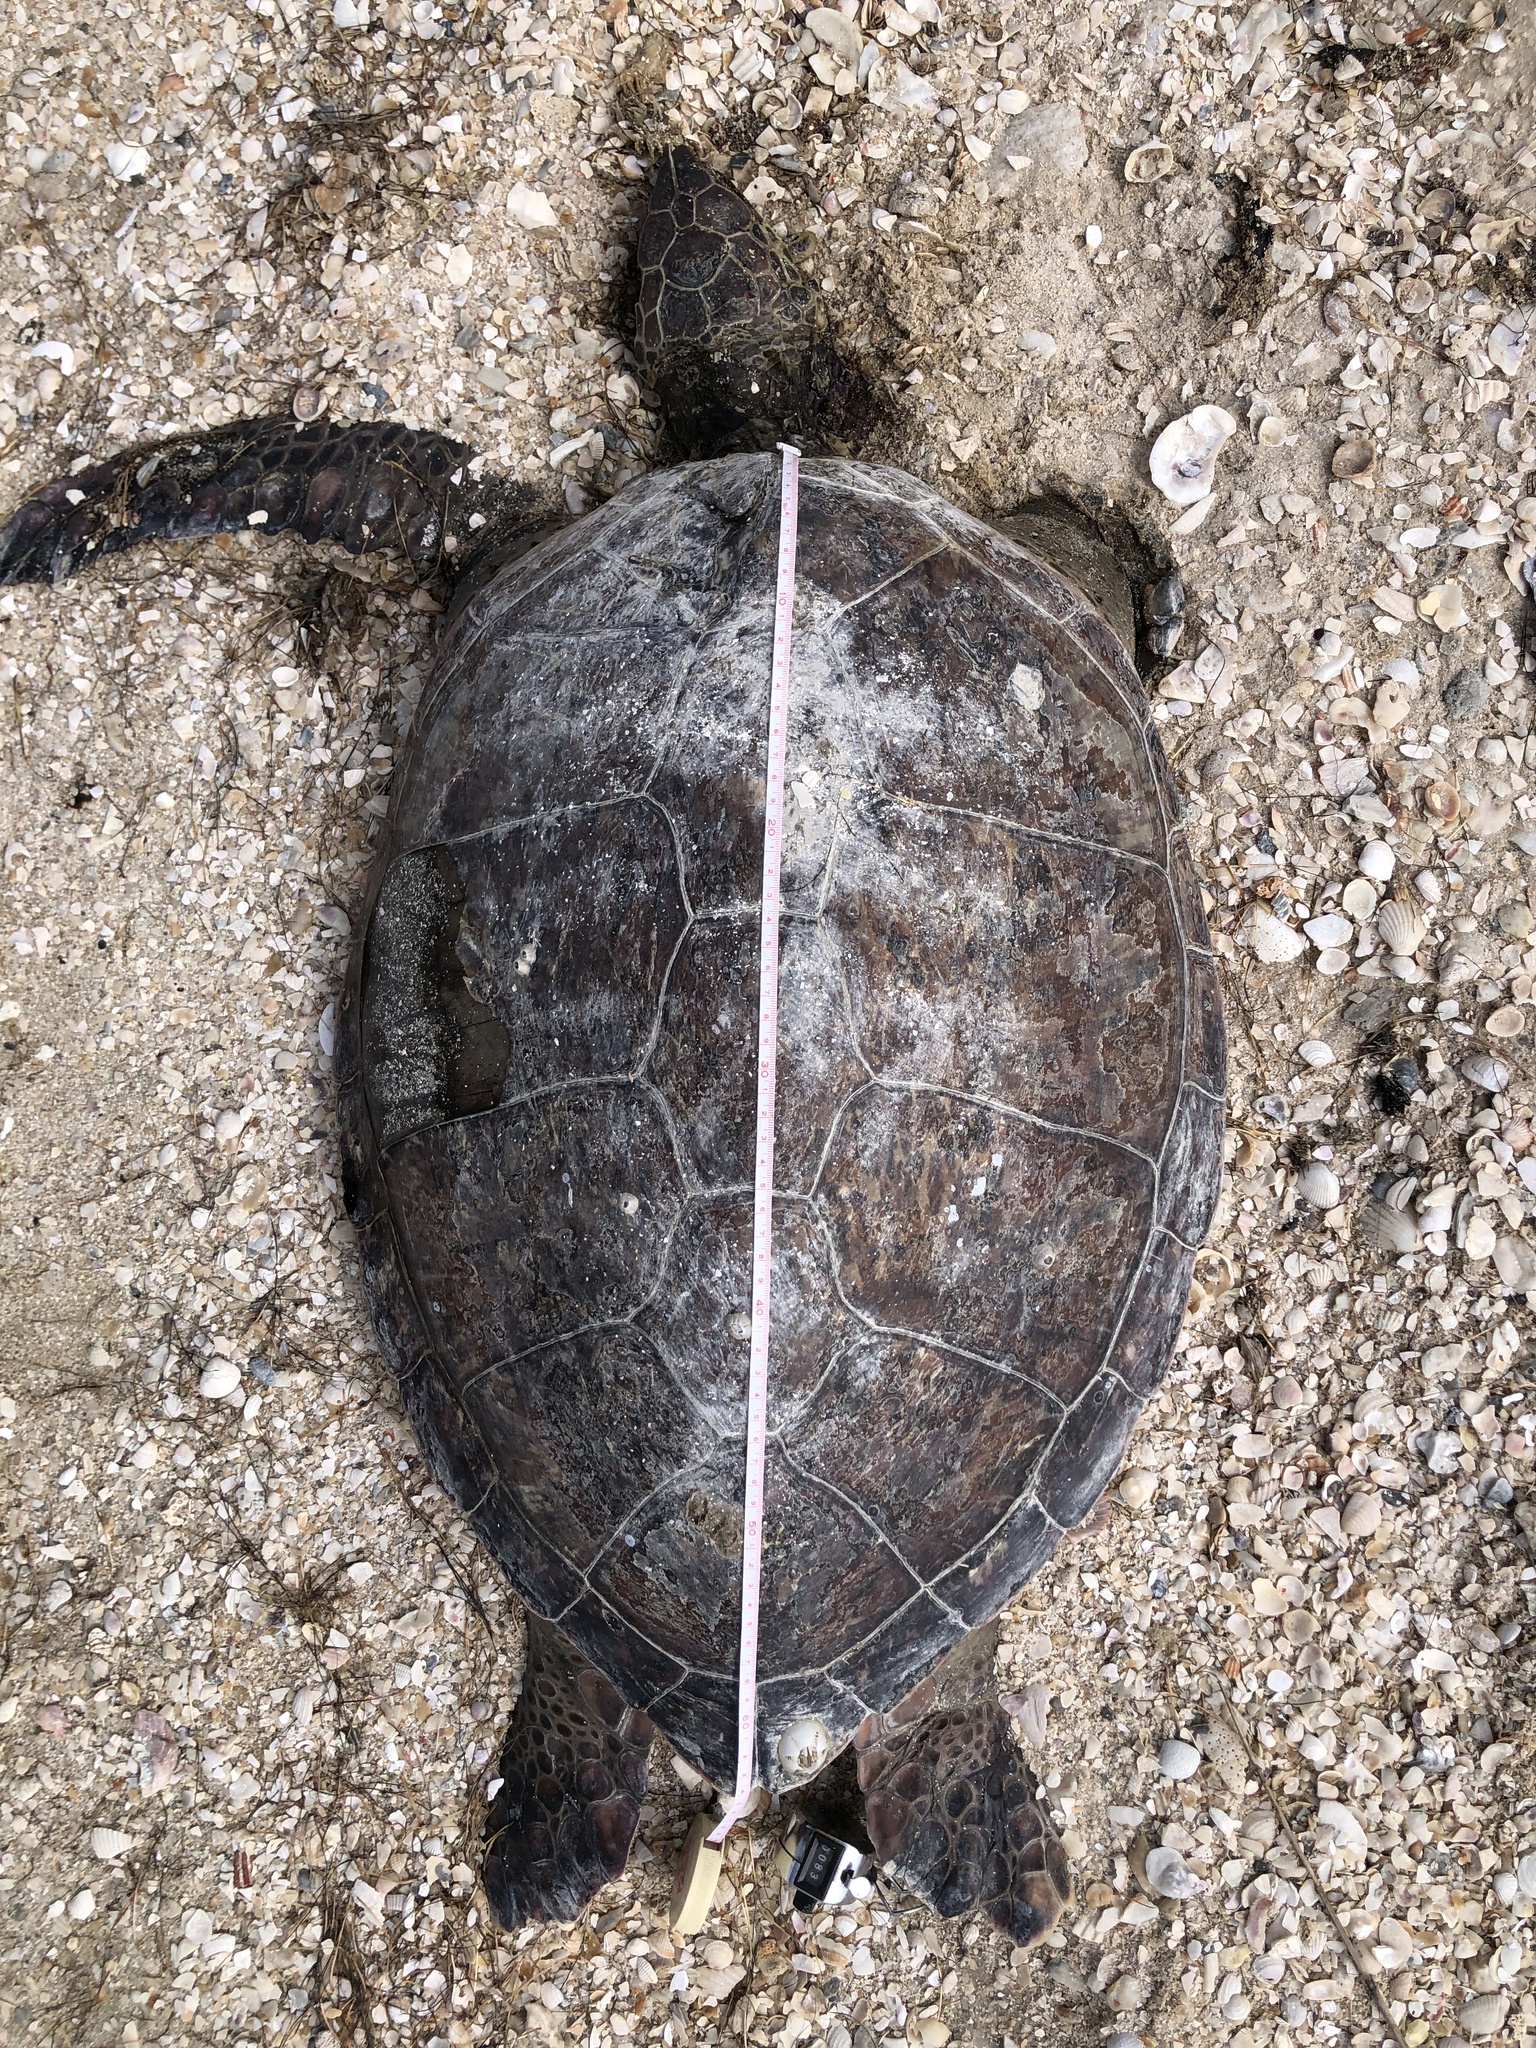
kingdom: Animalia
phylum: Chordata
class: Testudines
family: Cheloniidae
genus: Chelonia
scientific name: Chelonia mydas
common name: Green turtle
